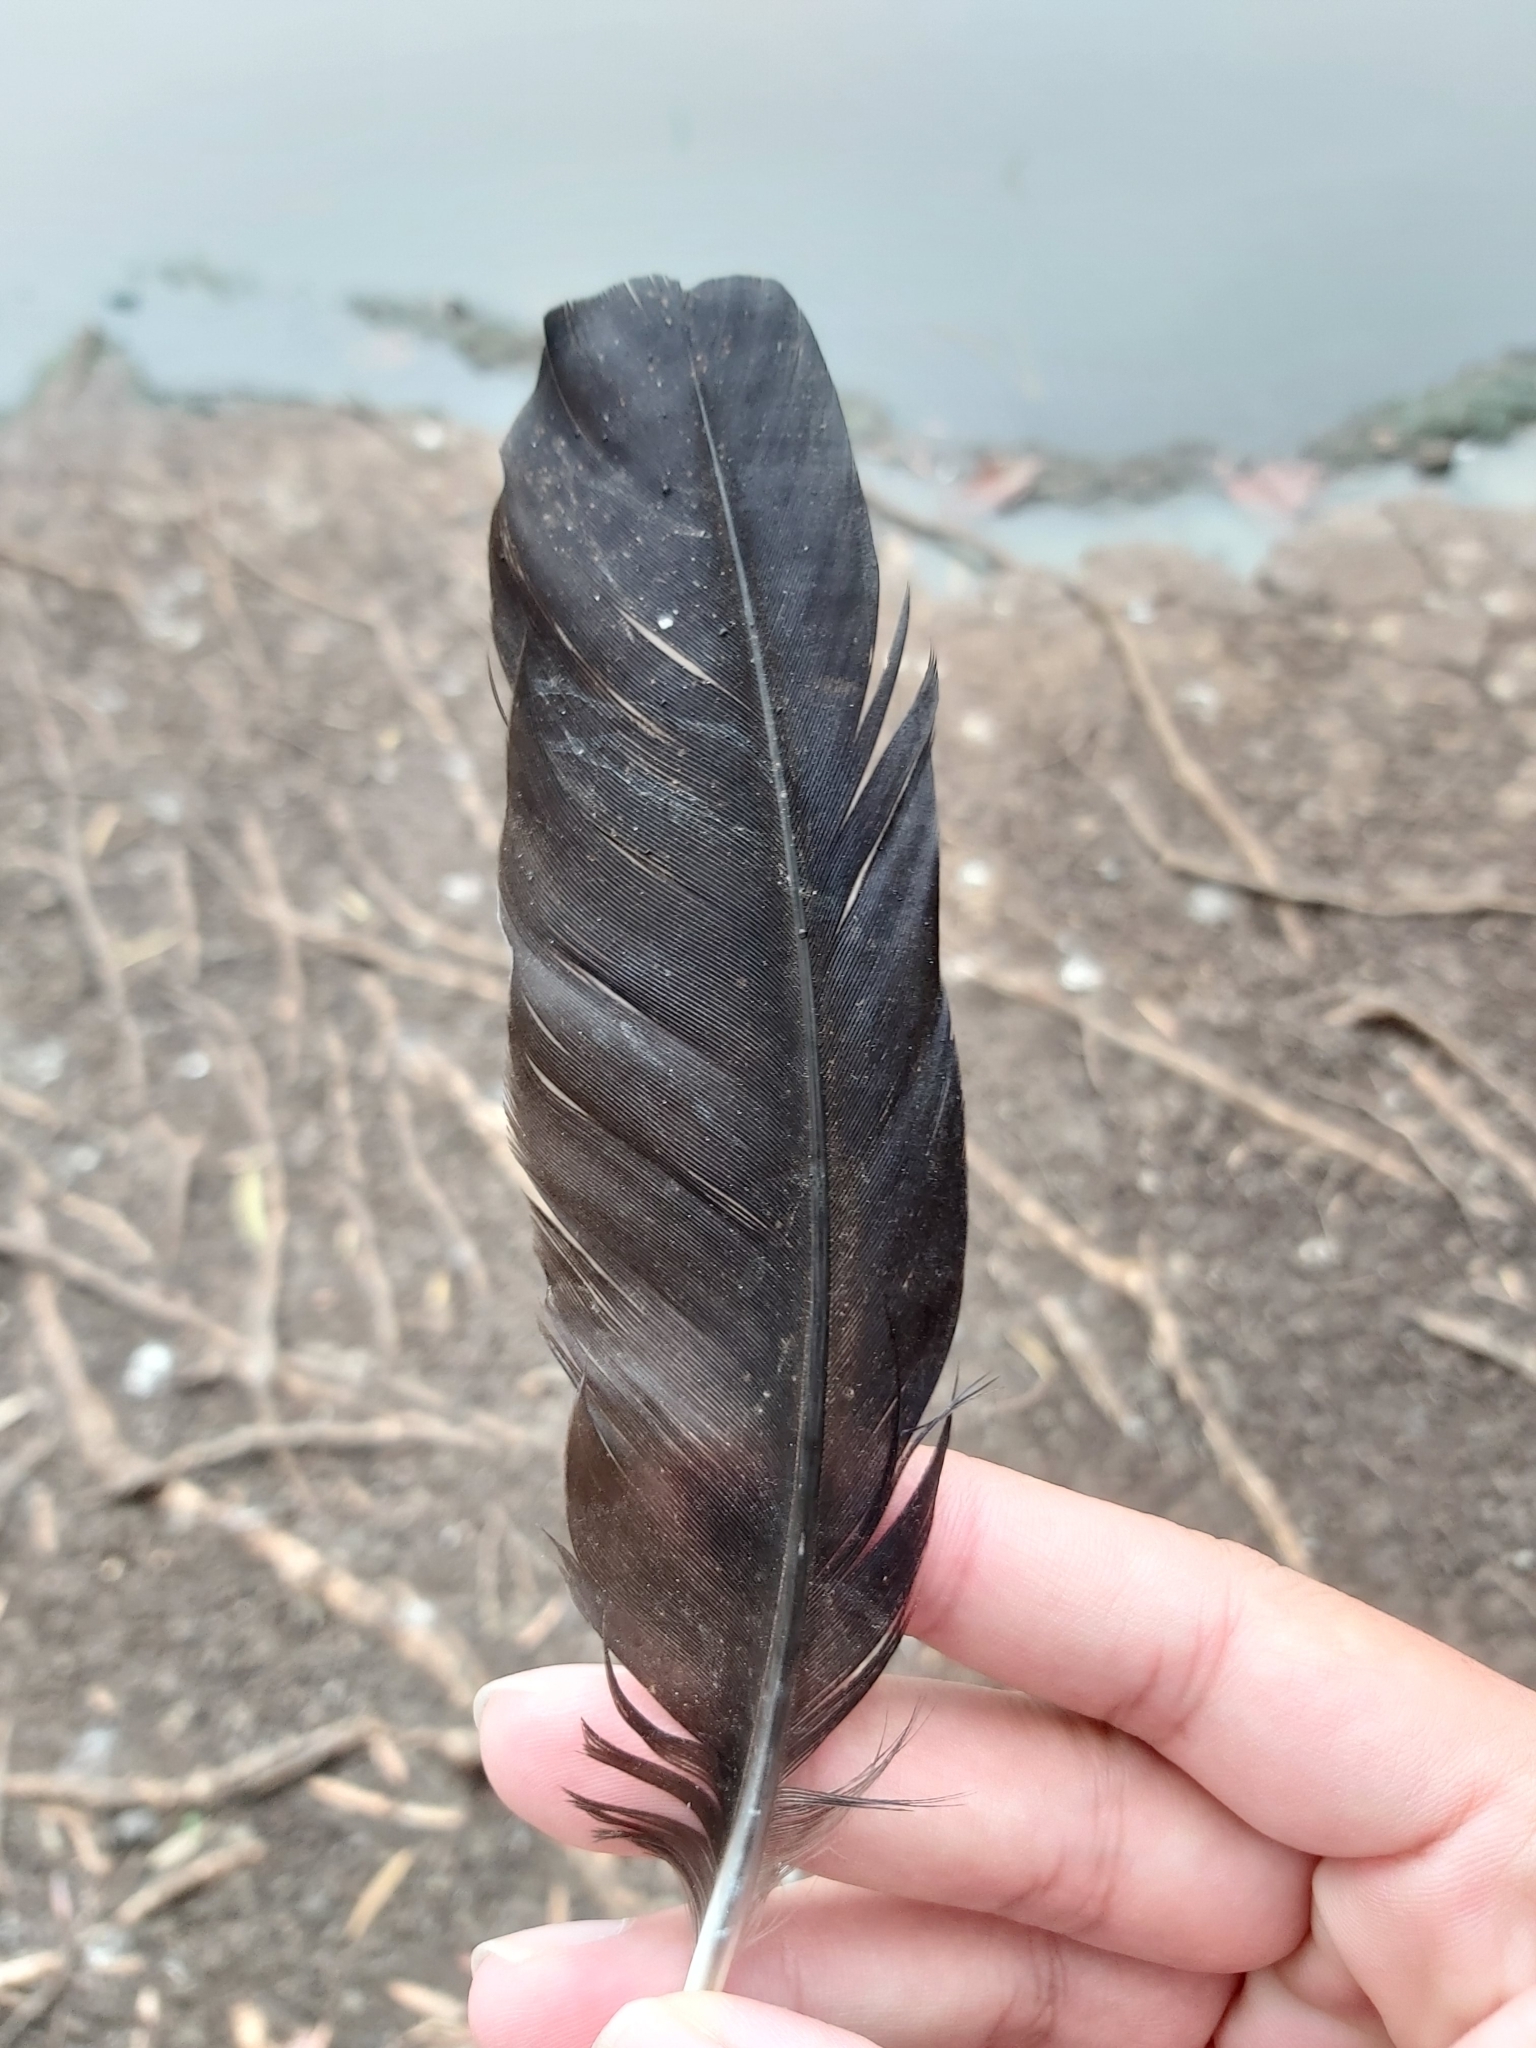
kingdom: Animalia
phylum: Chordata
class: Aves
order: Passeriformes
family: Corvidae
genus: Corvus
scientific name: Corvus coronoides
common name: Australian raven
